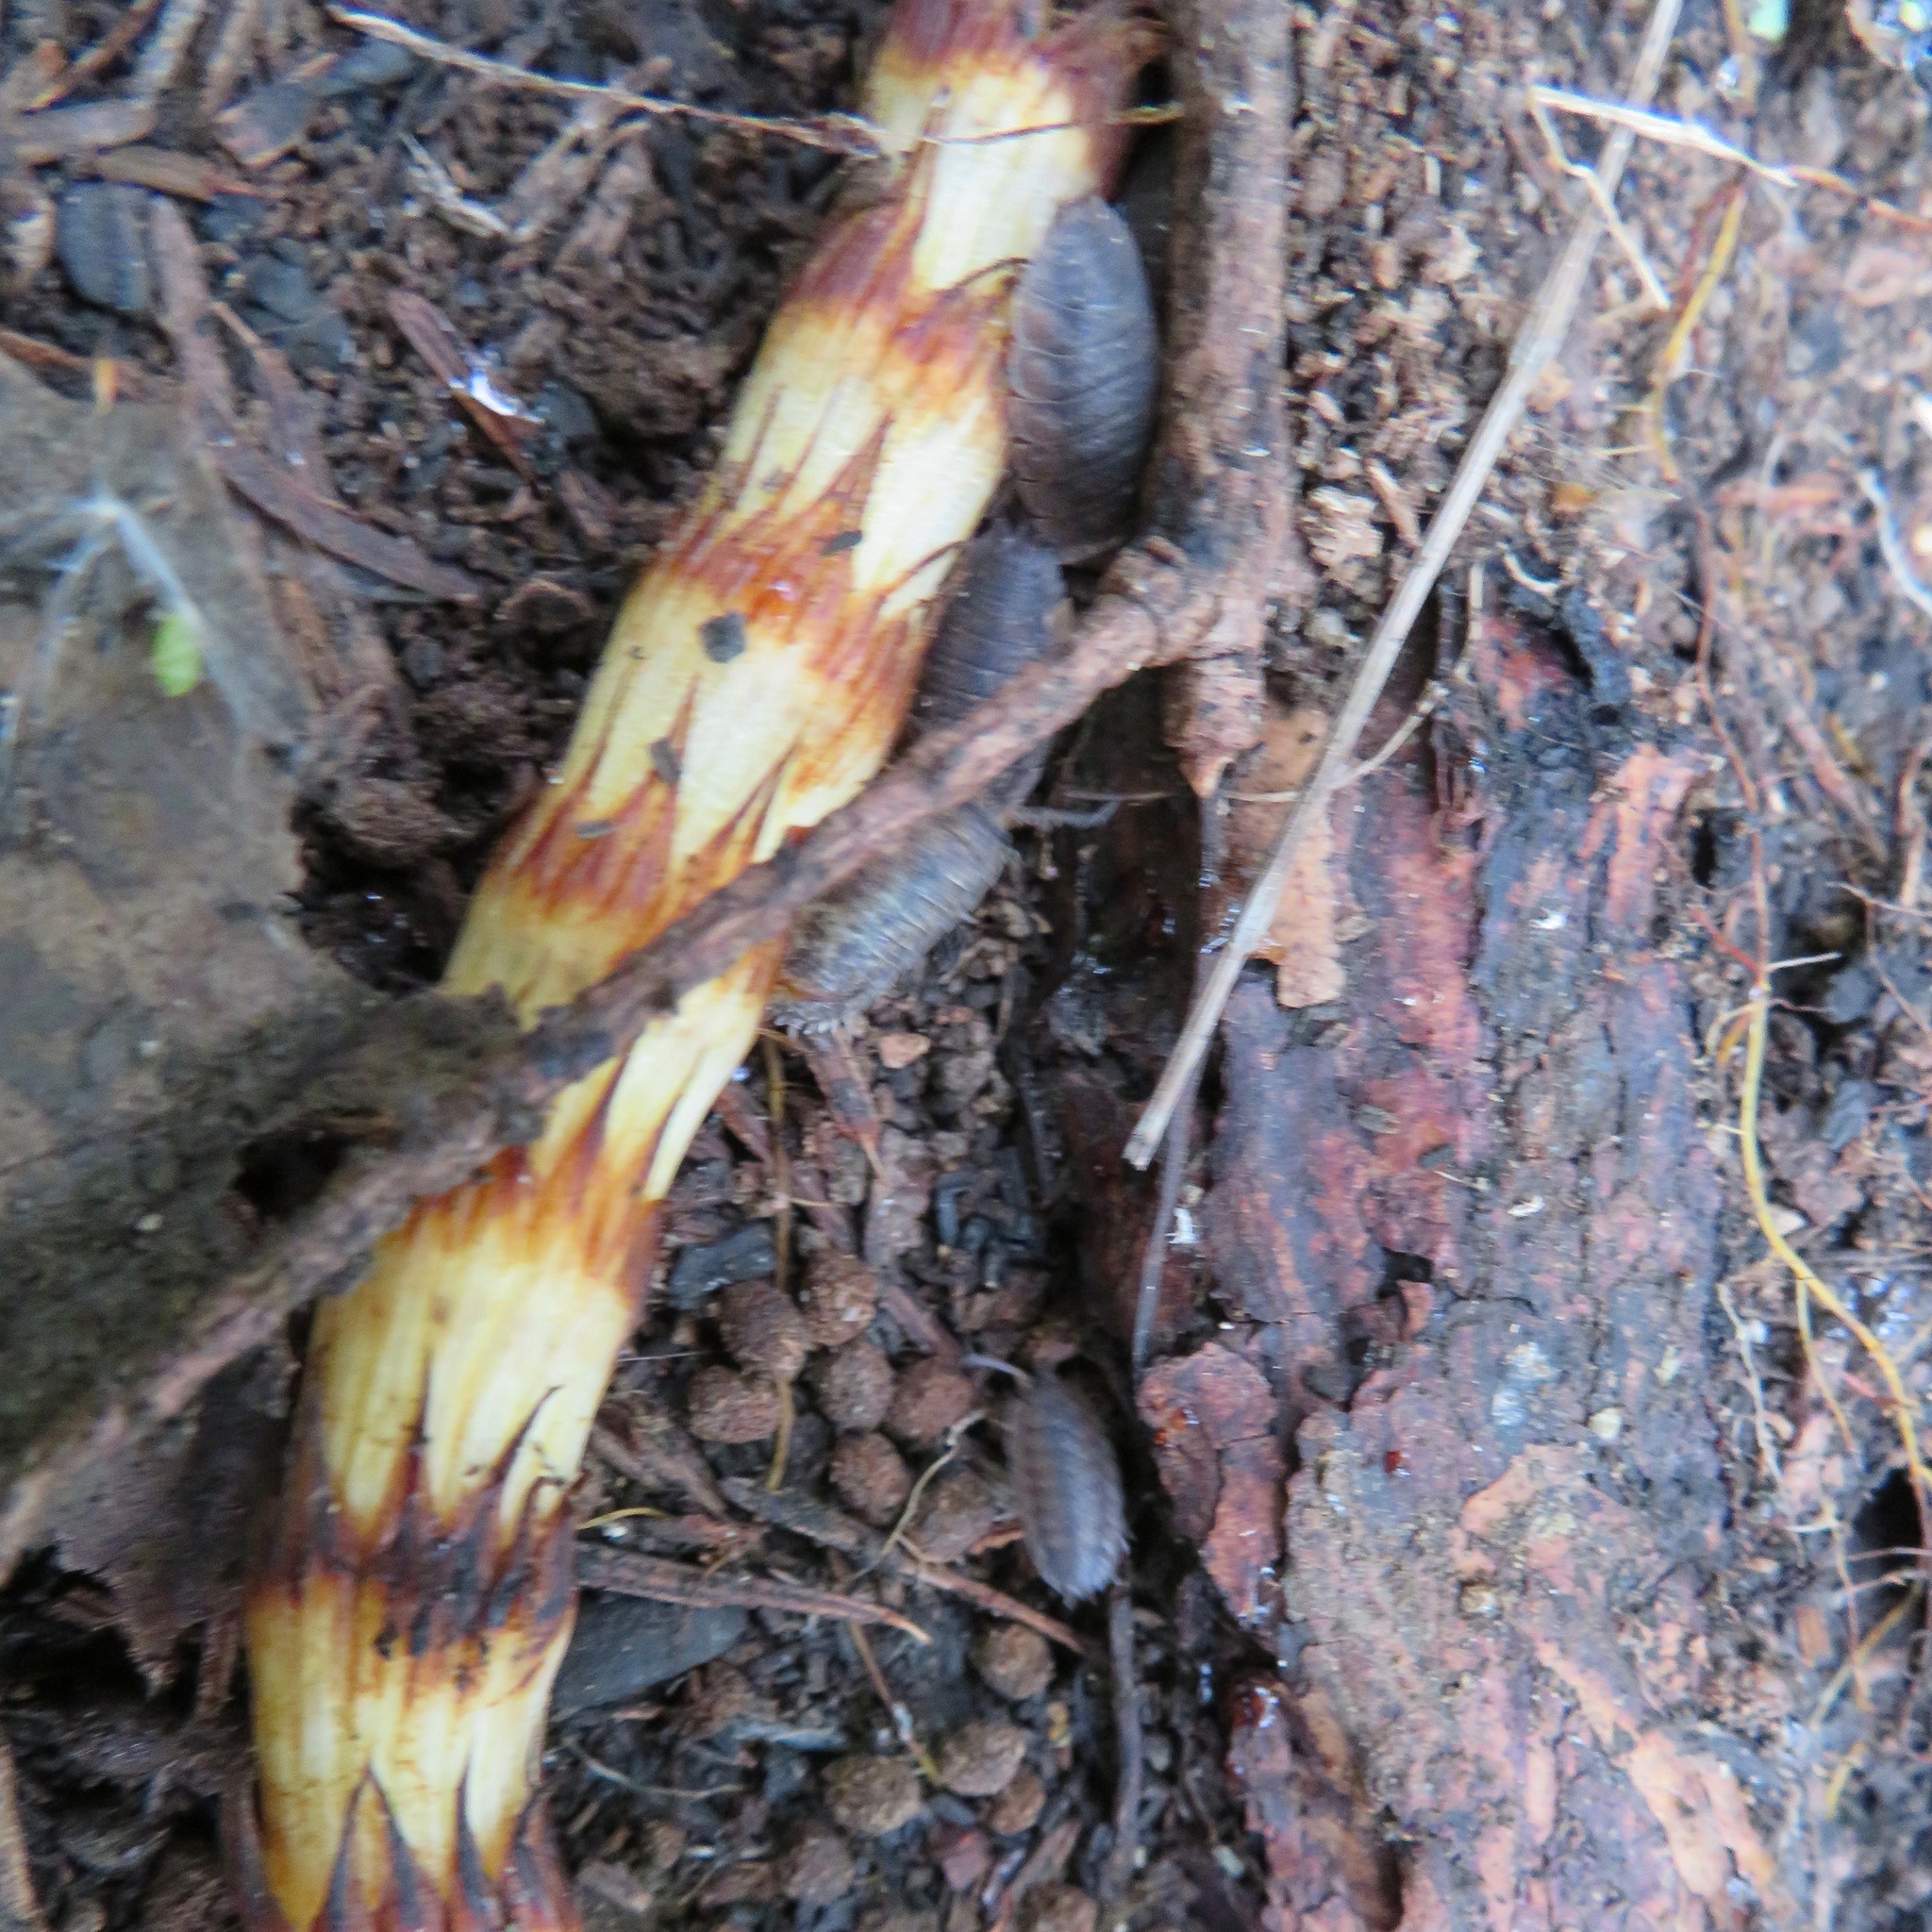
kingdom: Animalia
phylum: Arthropoda
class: Malacostraca
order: Isopoda
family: Porcellionidae
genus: Porcellio
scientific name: Porcellio scaber
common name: Common rough woodlouse
